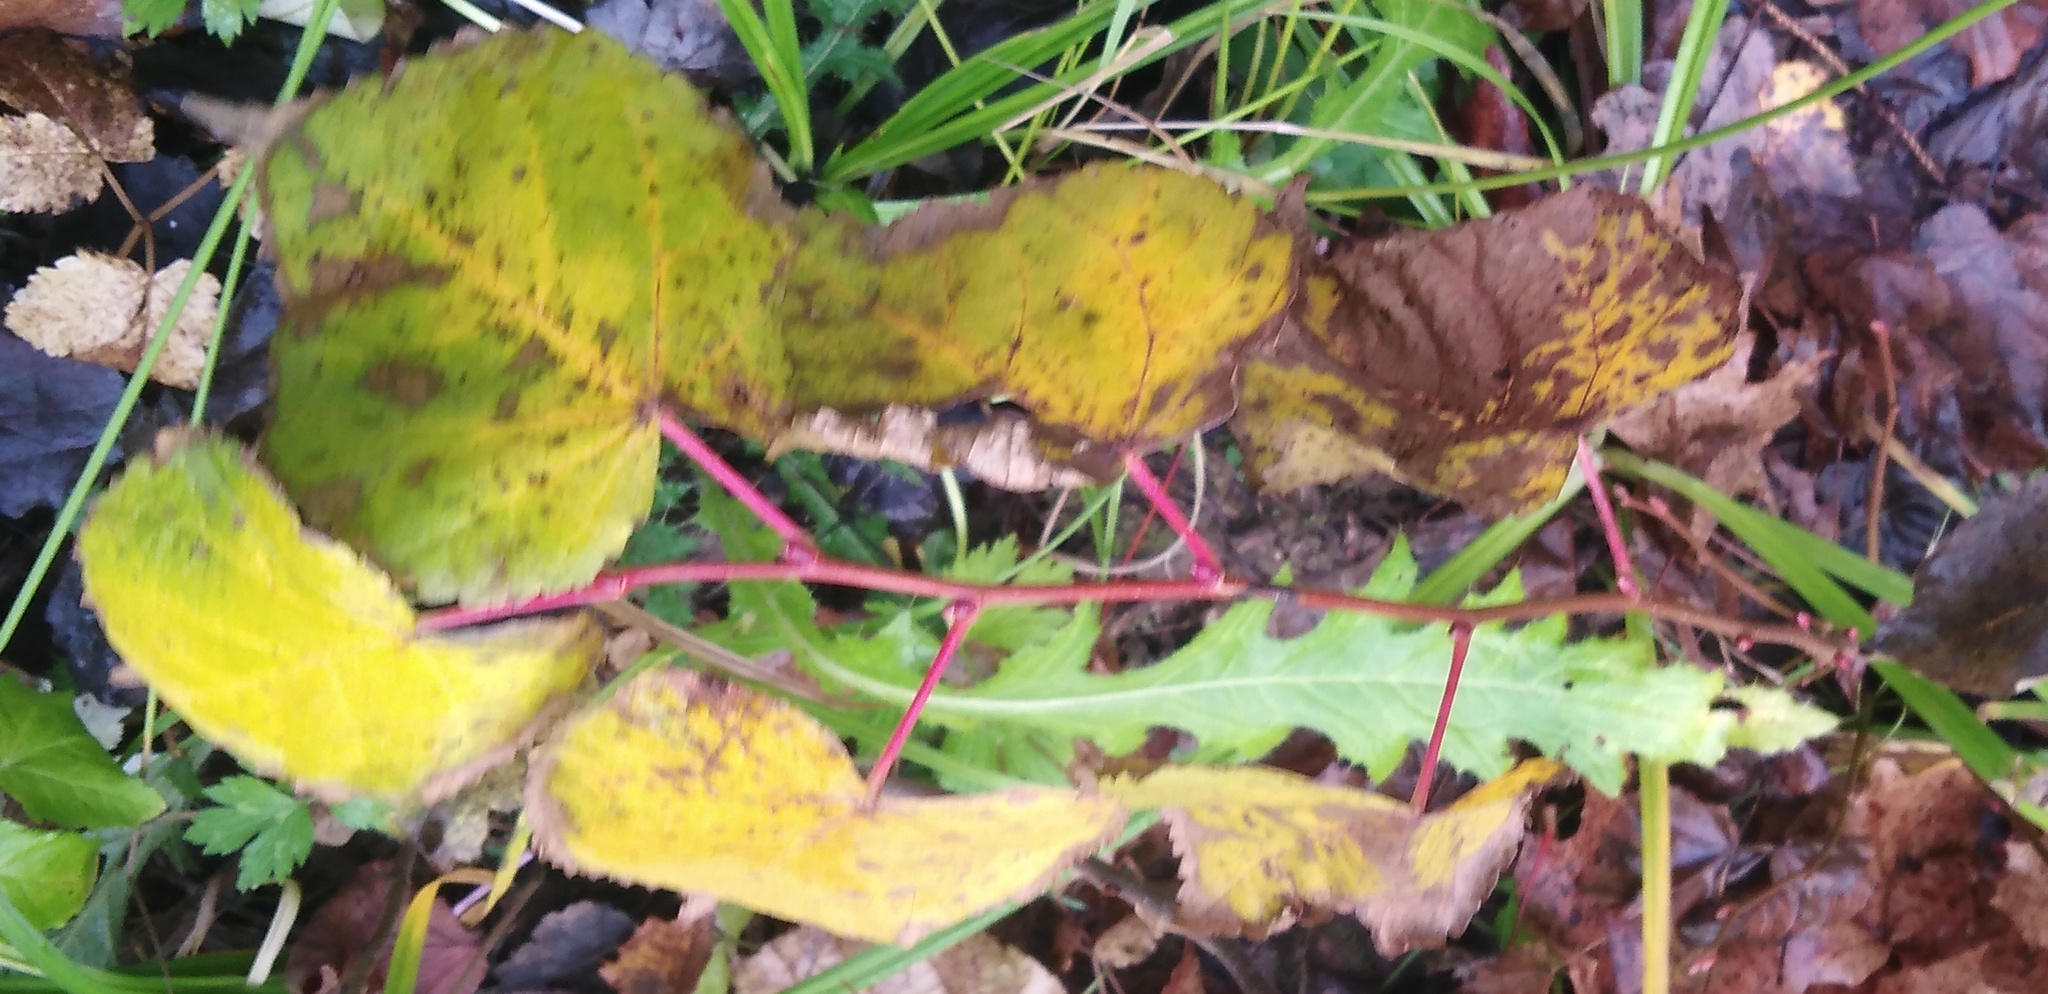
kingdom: Plantae
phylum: Tracheophyta
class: Magnoliopsida
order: Malvales
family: Malvaceae
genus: Tilia
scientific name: Tilia cordata
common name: Small-leaved lime
